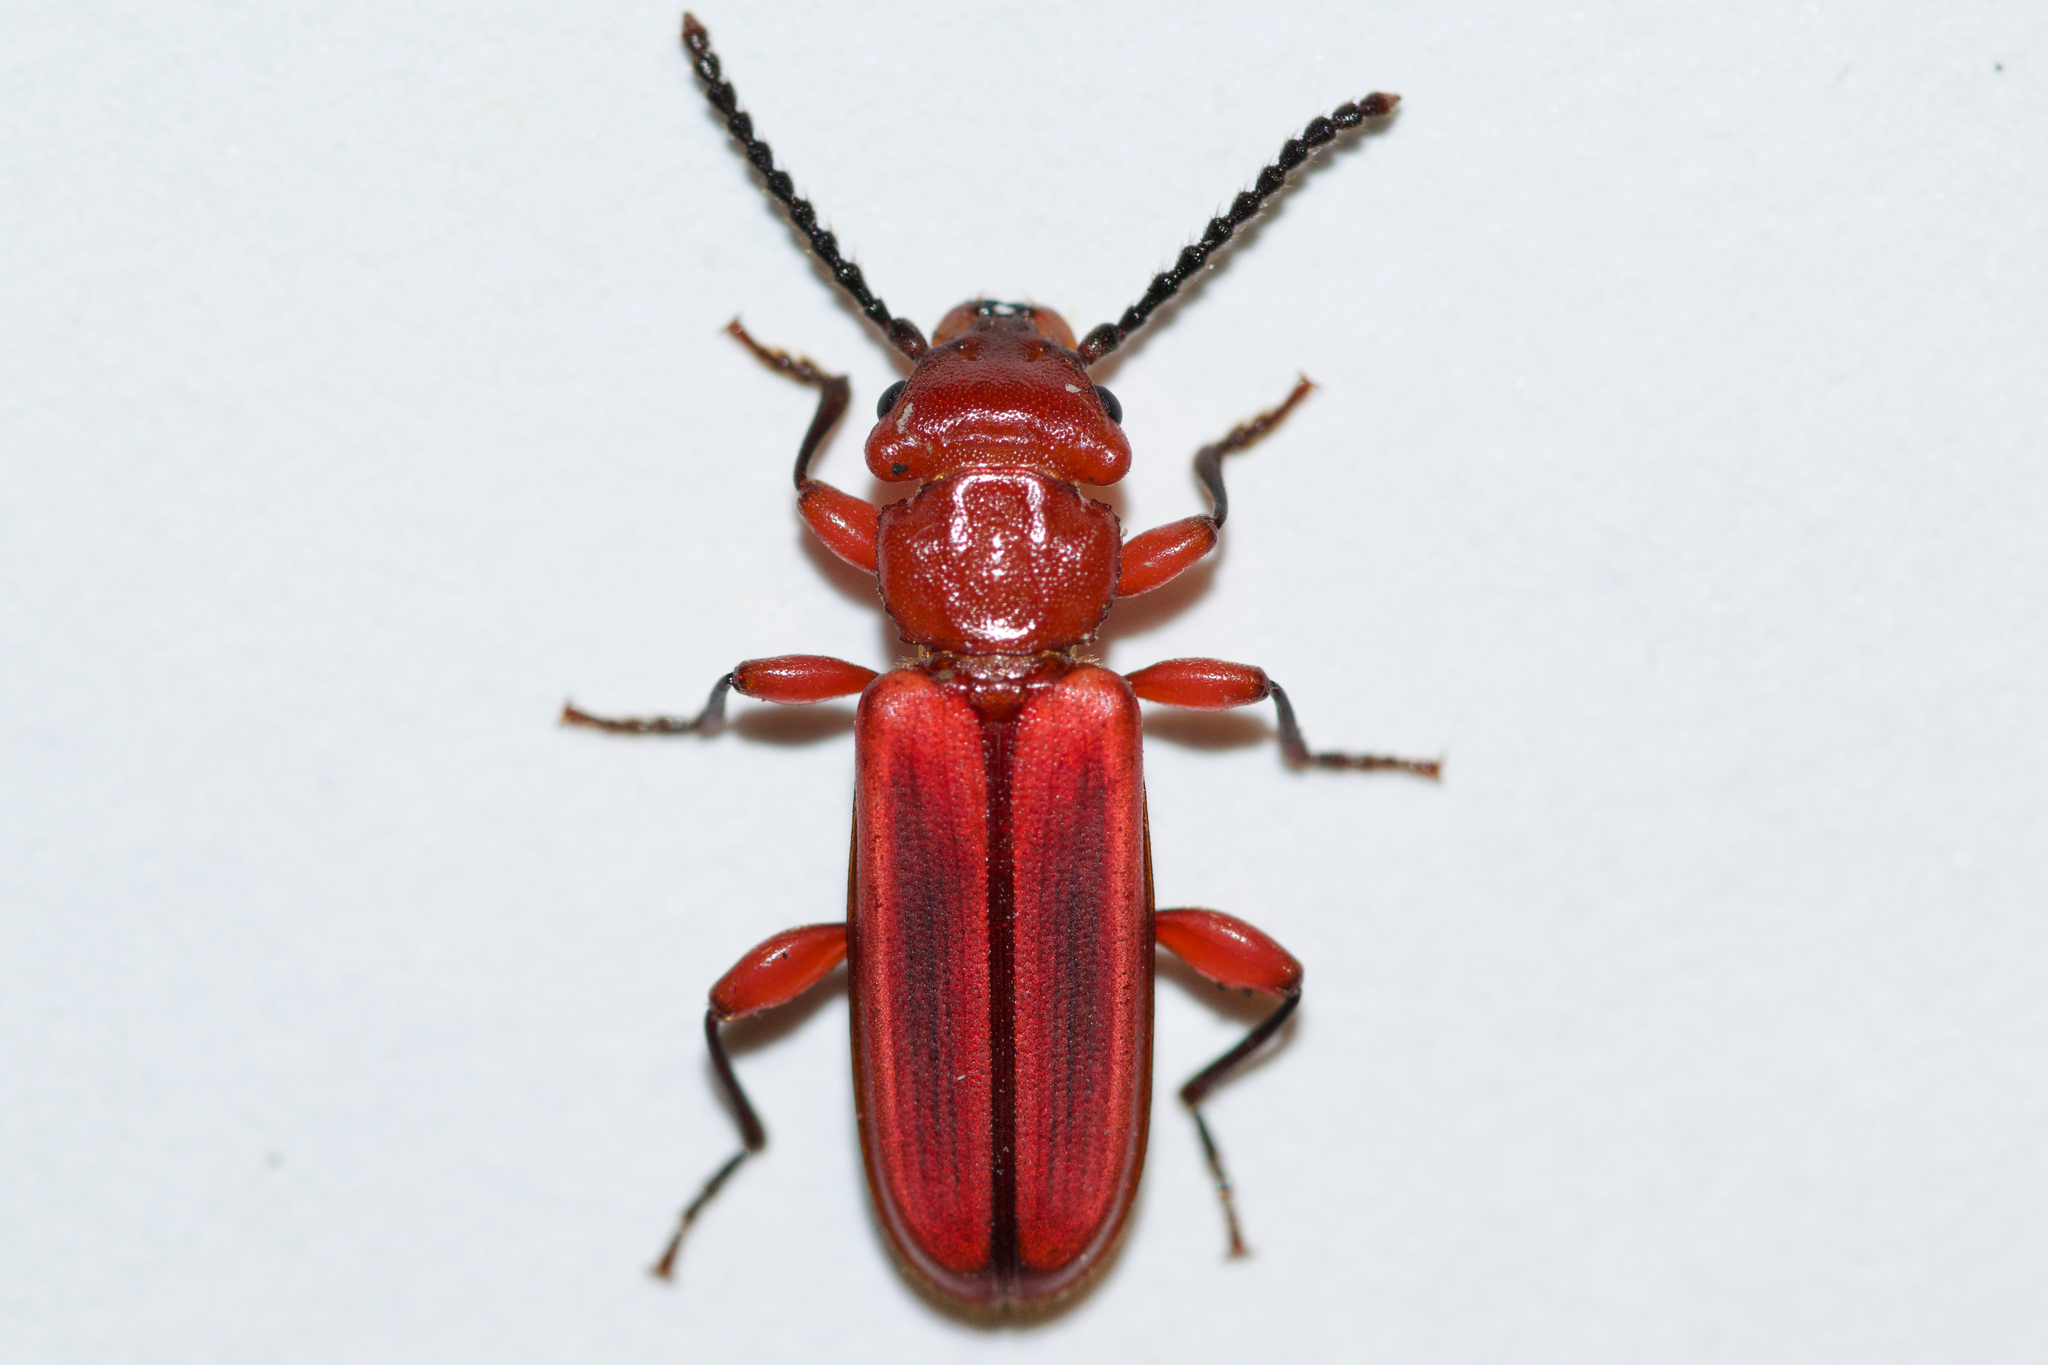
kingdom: Animalia
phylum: Arthropoda
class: Insecta
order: Coleoptera
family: Cucujidae
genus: Cucujus
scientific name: Cucujus clavipes
